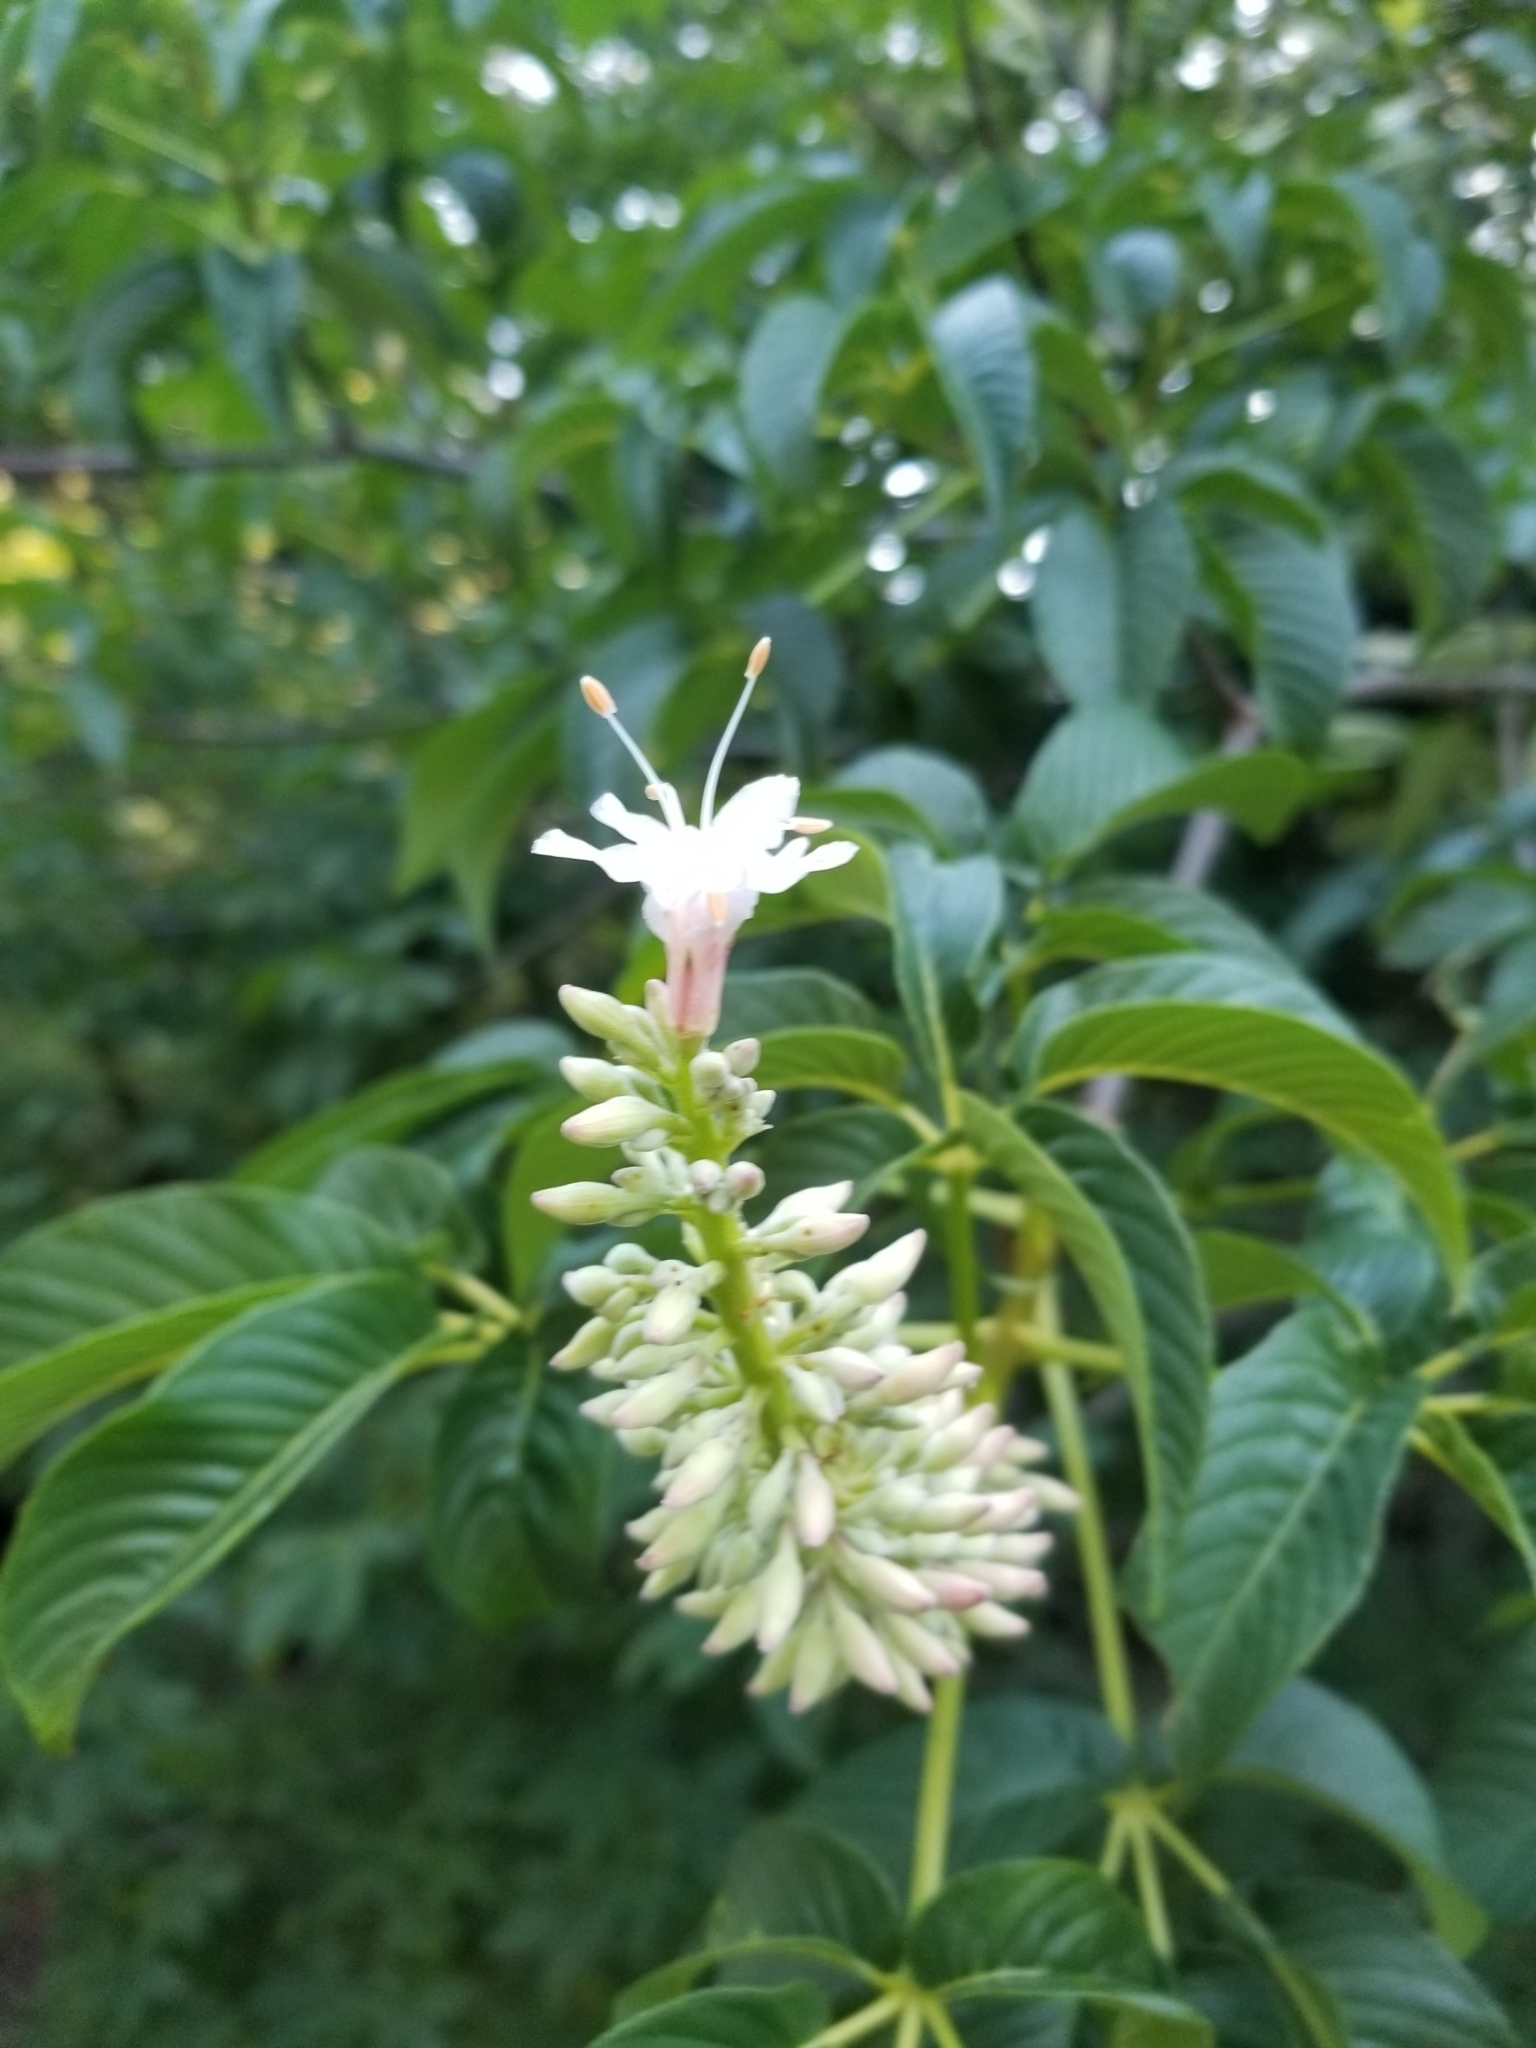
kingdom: Plantae
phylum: Tracheophyta
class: Magnoliopsida
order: Sapindales
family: Sapindaceae
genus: Aesculus
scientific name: Aesculus californica
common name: California buckeye
